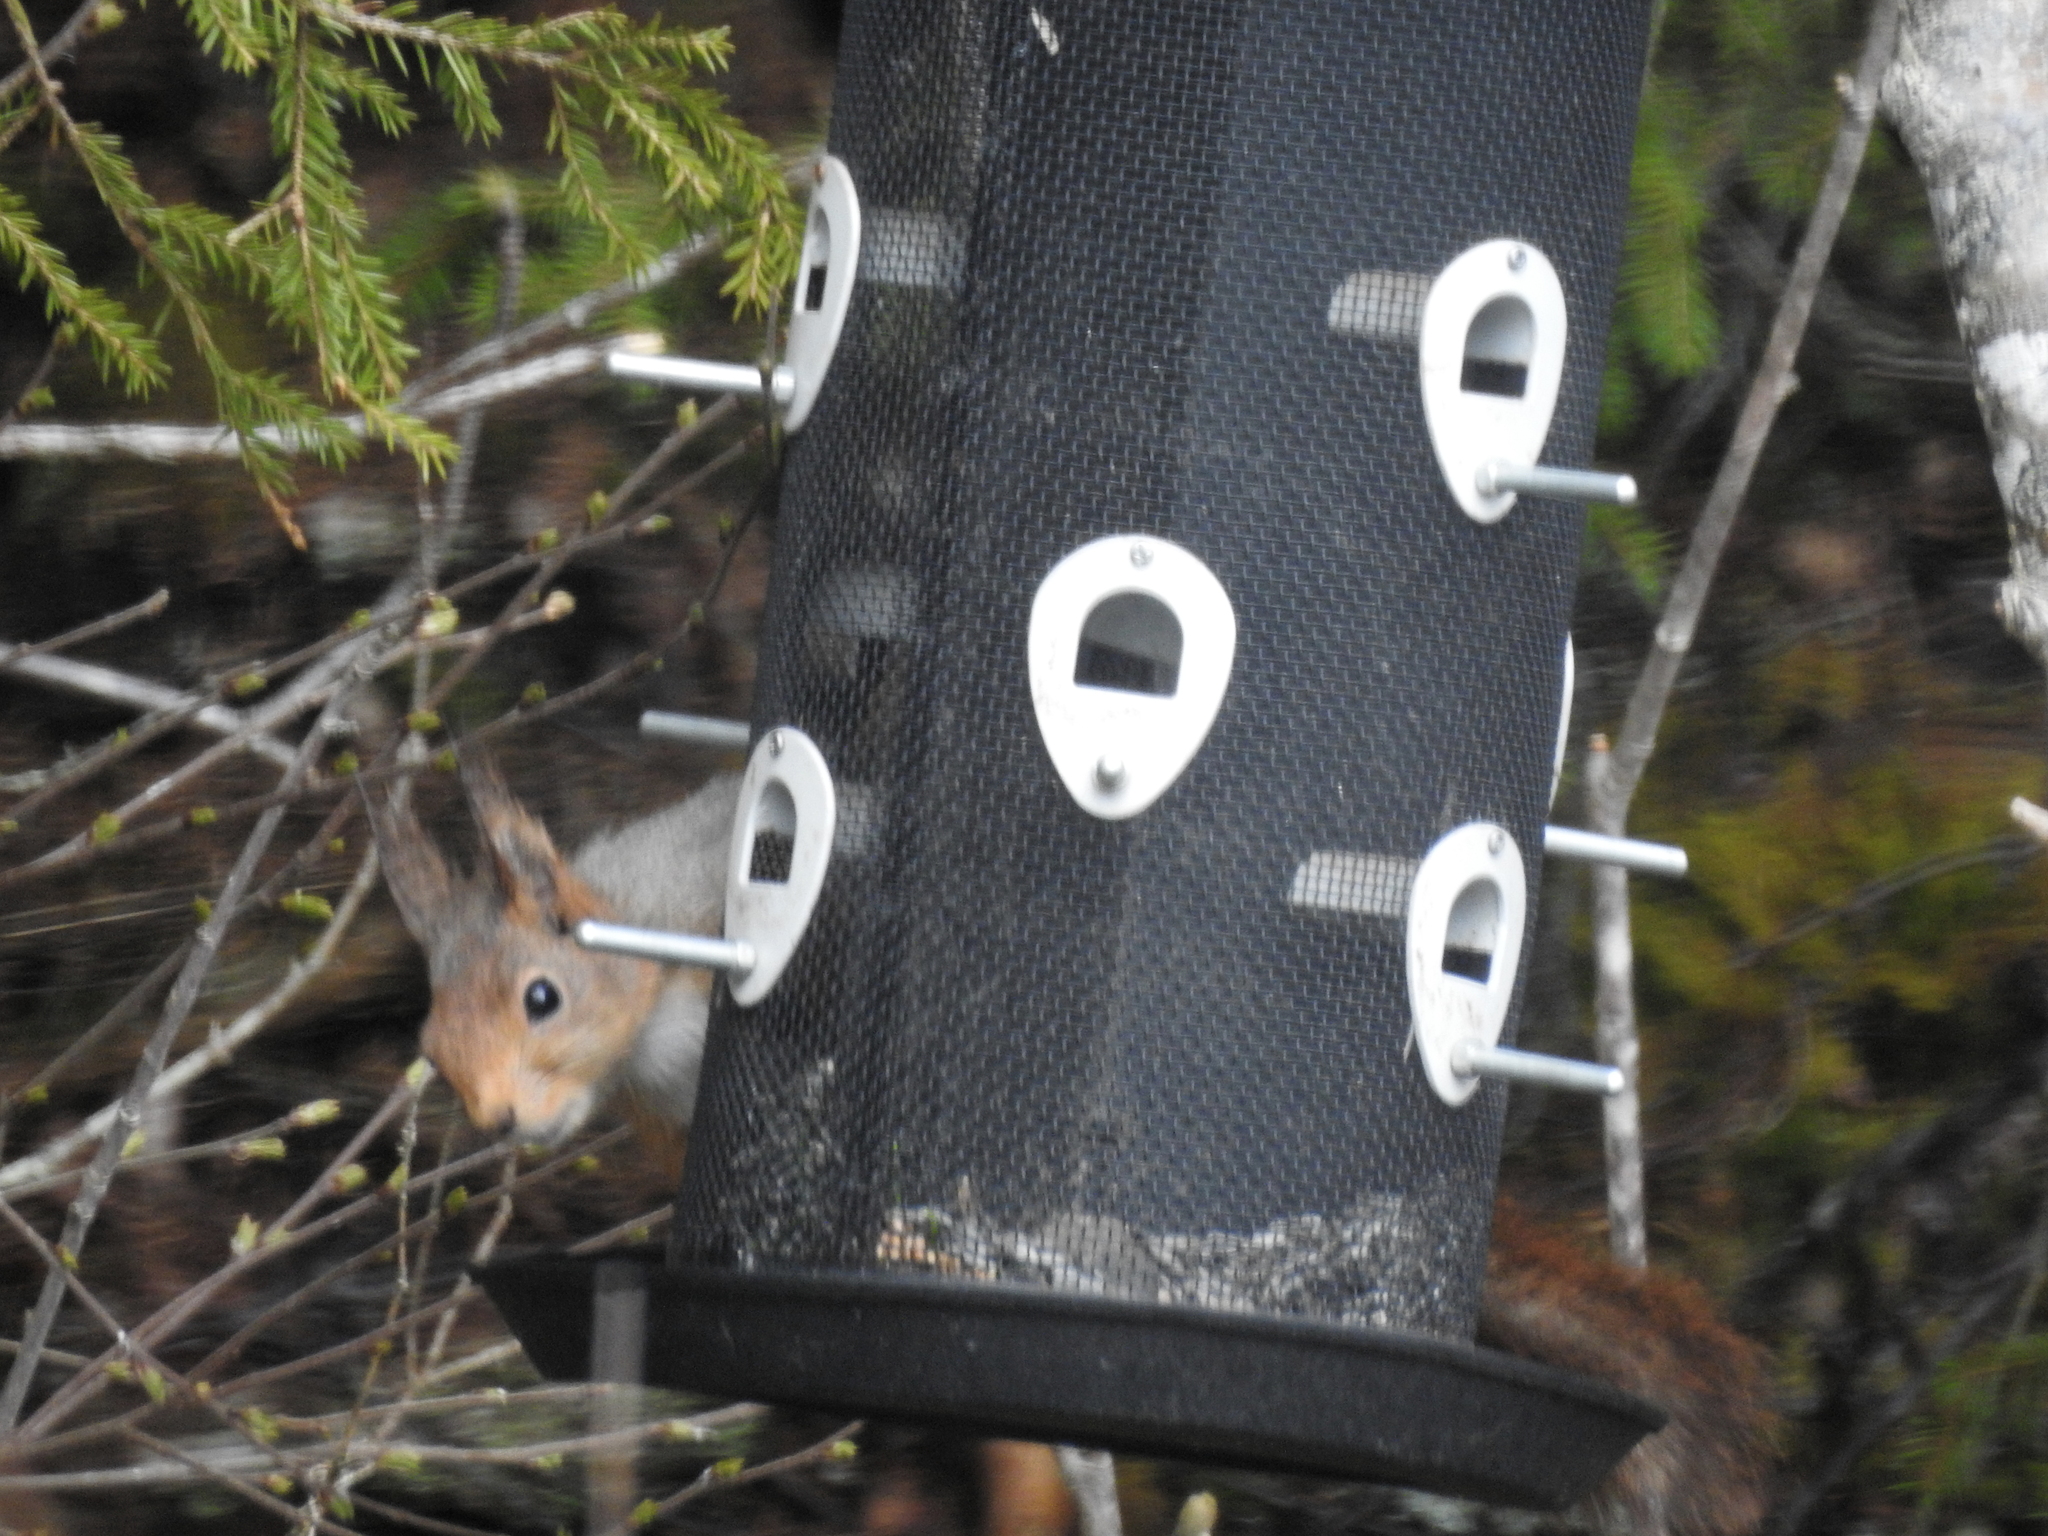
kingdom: Animalia
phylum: Chordata
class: Mammalia
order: Rodentia
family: Sciuridae
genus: Sciurus
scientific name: Sciurus vulgaris
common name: Eurasian red squirrel
